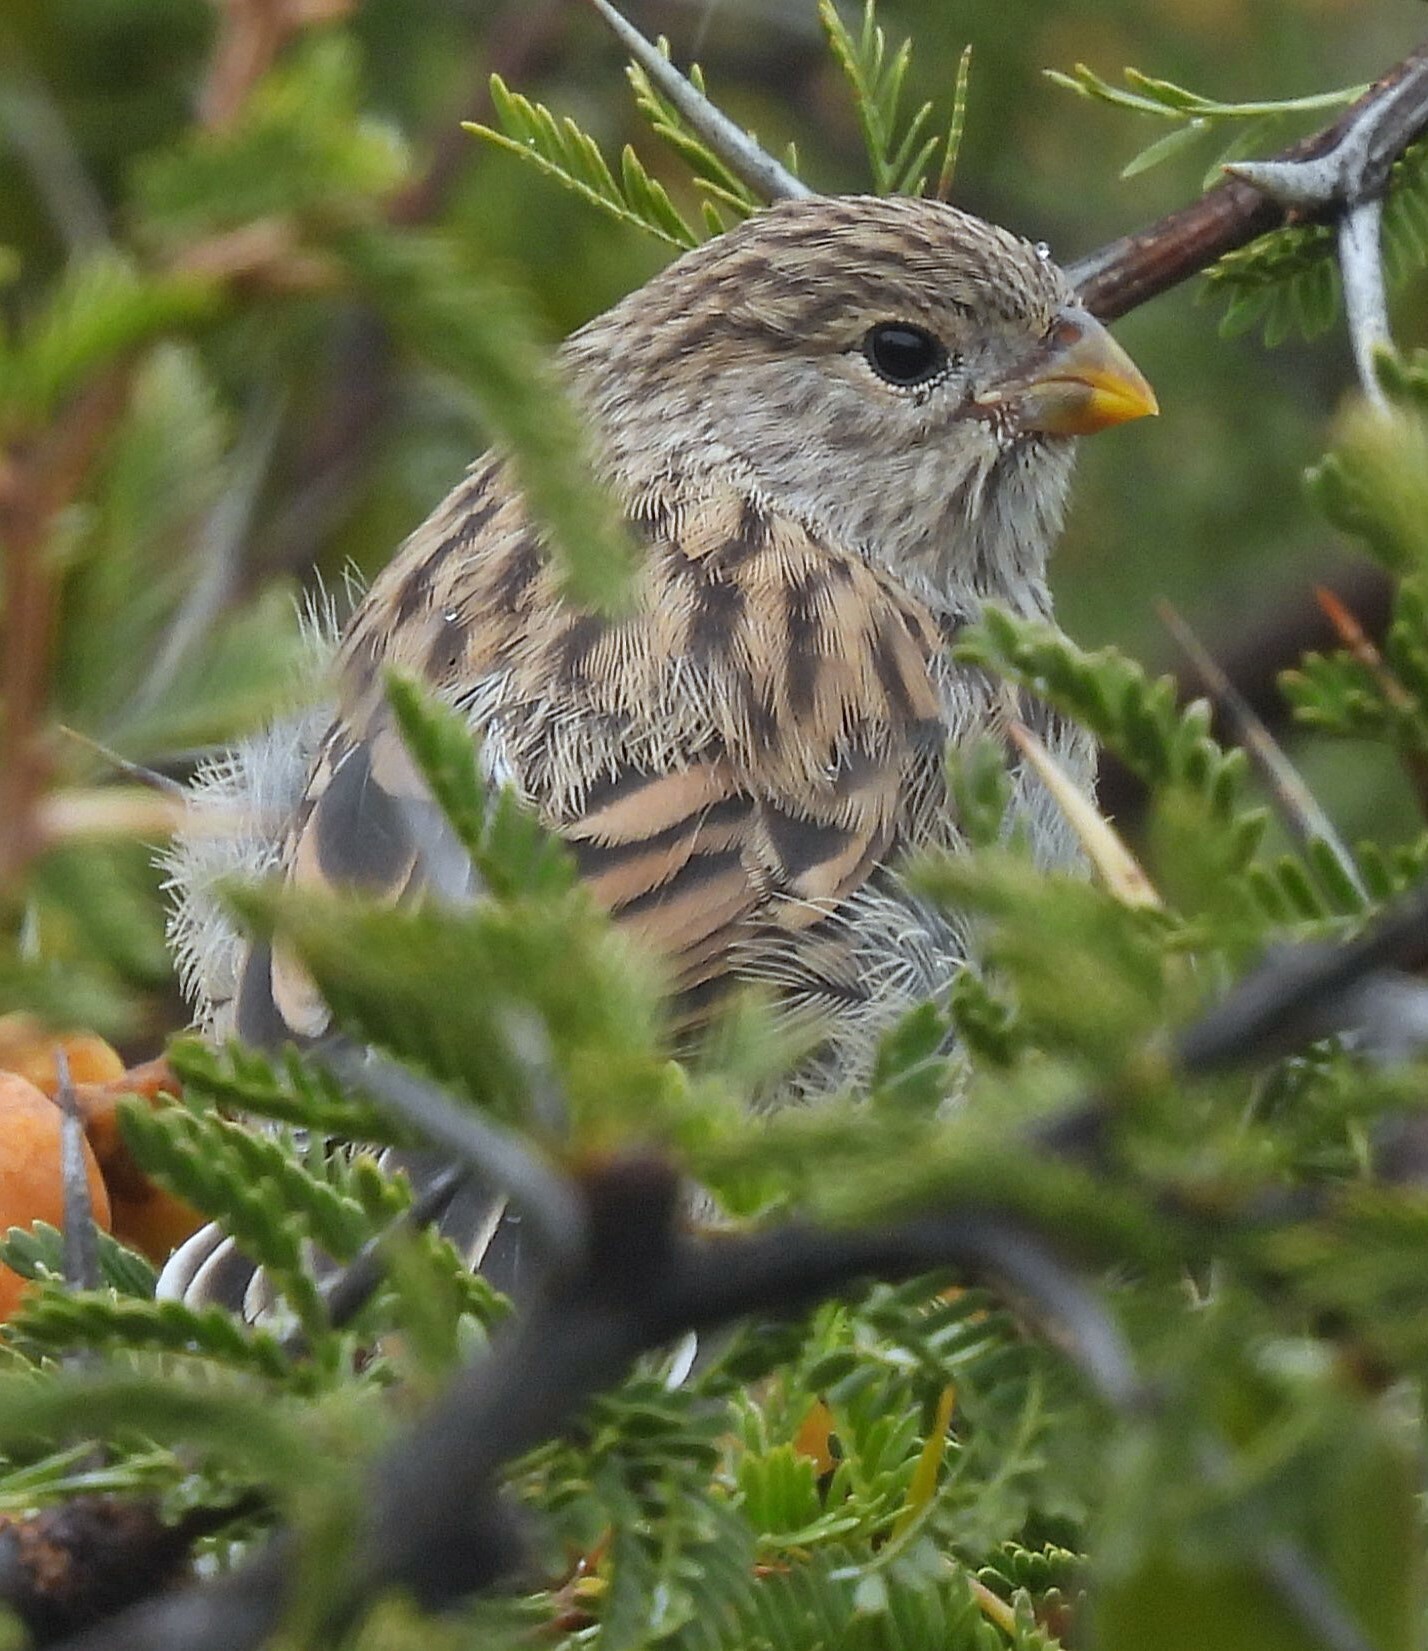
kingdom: Animalia
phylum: Chordata
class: Aves
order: Passeriformes
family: Thraupidae
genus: Catamenia
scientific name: Catamenia analis
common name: Band-tailed seedeater
